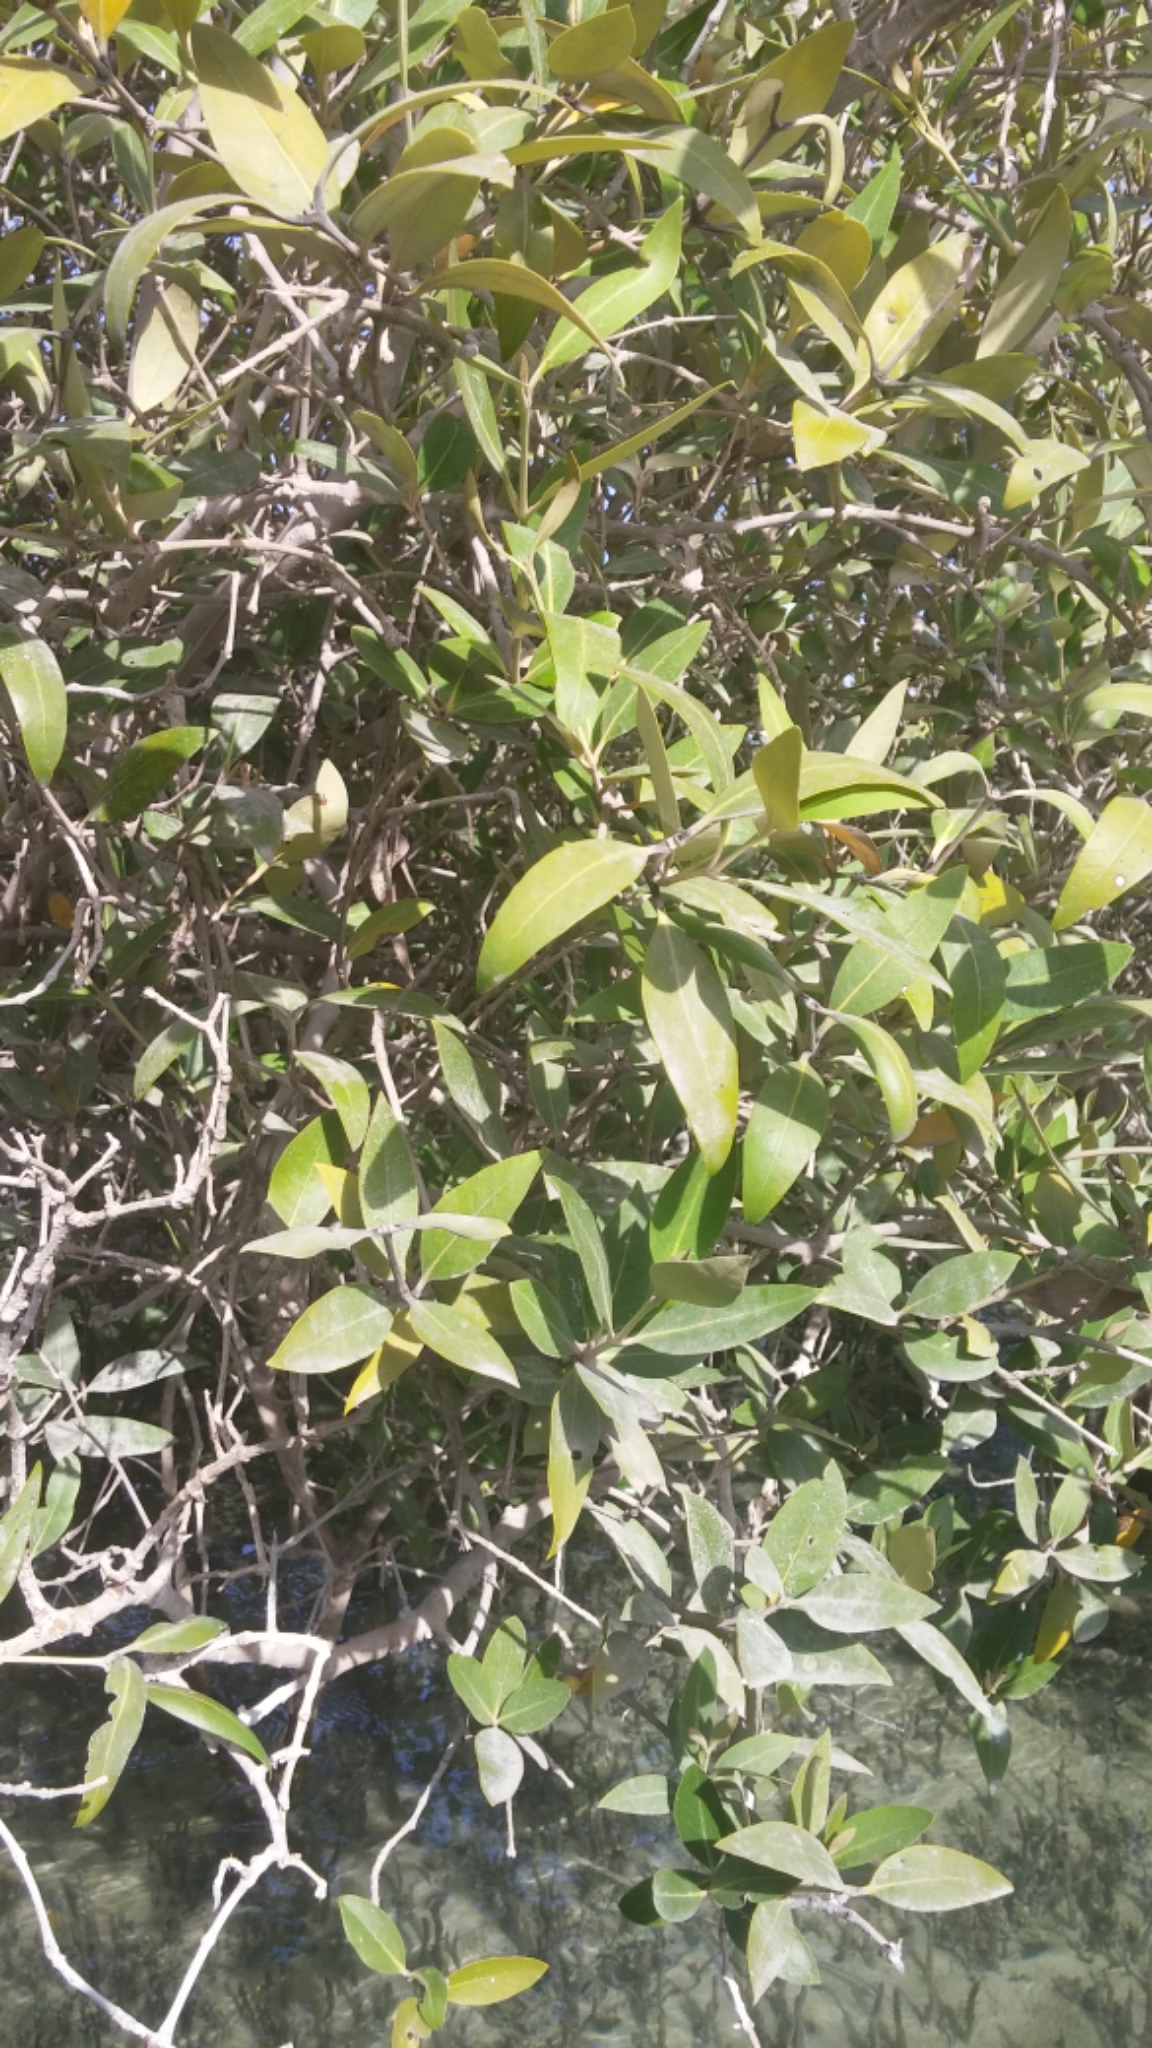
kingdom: Plantae
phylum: Tracheophyta
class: Magnoliopsida
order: Lamiales
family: Acanthaceae
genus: Avicennia
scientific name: Avicennia marina
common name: Gray mangrove
